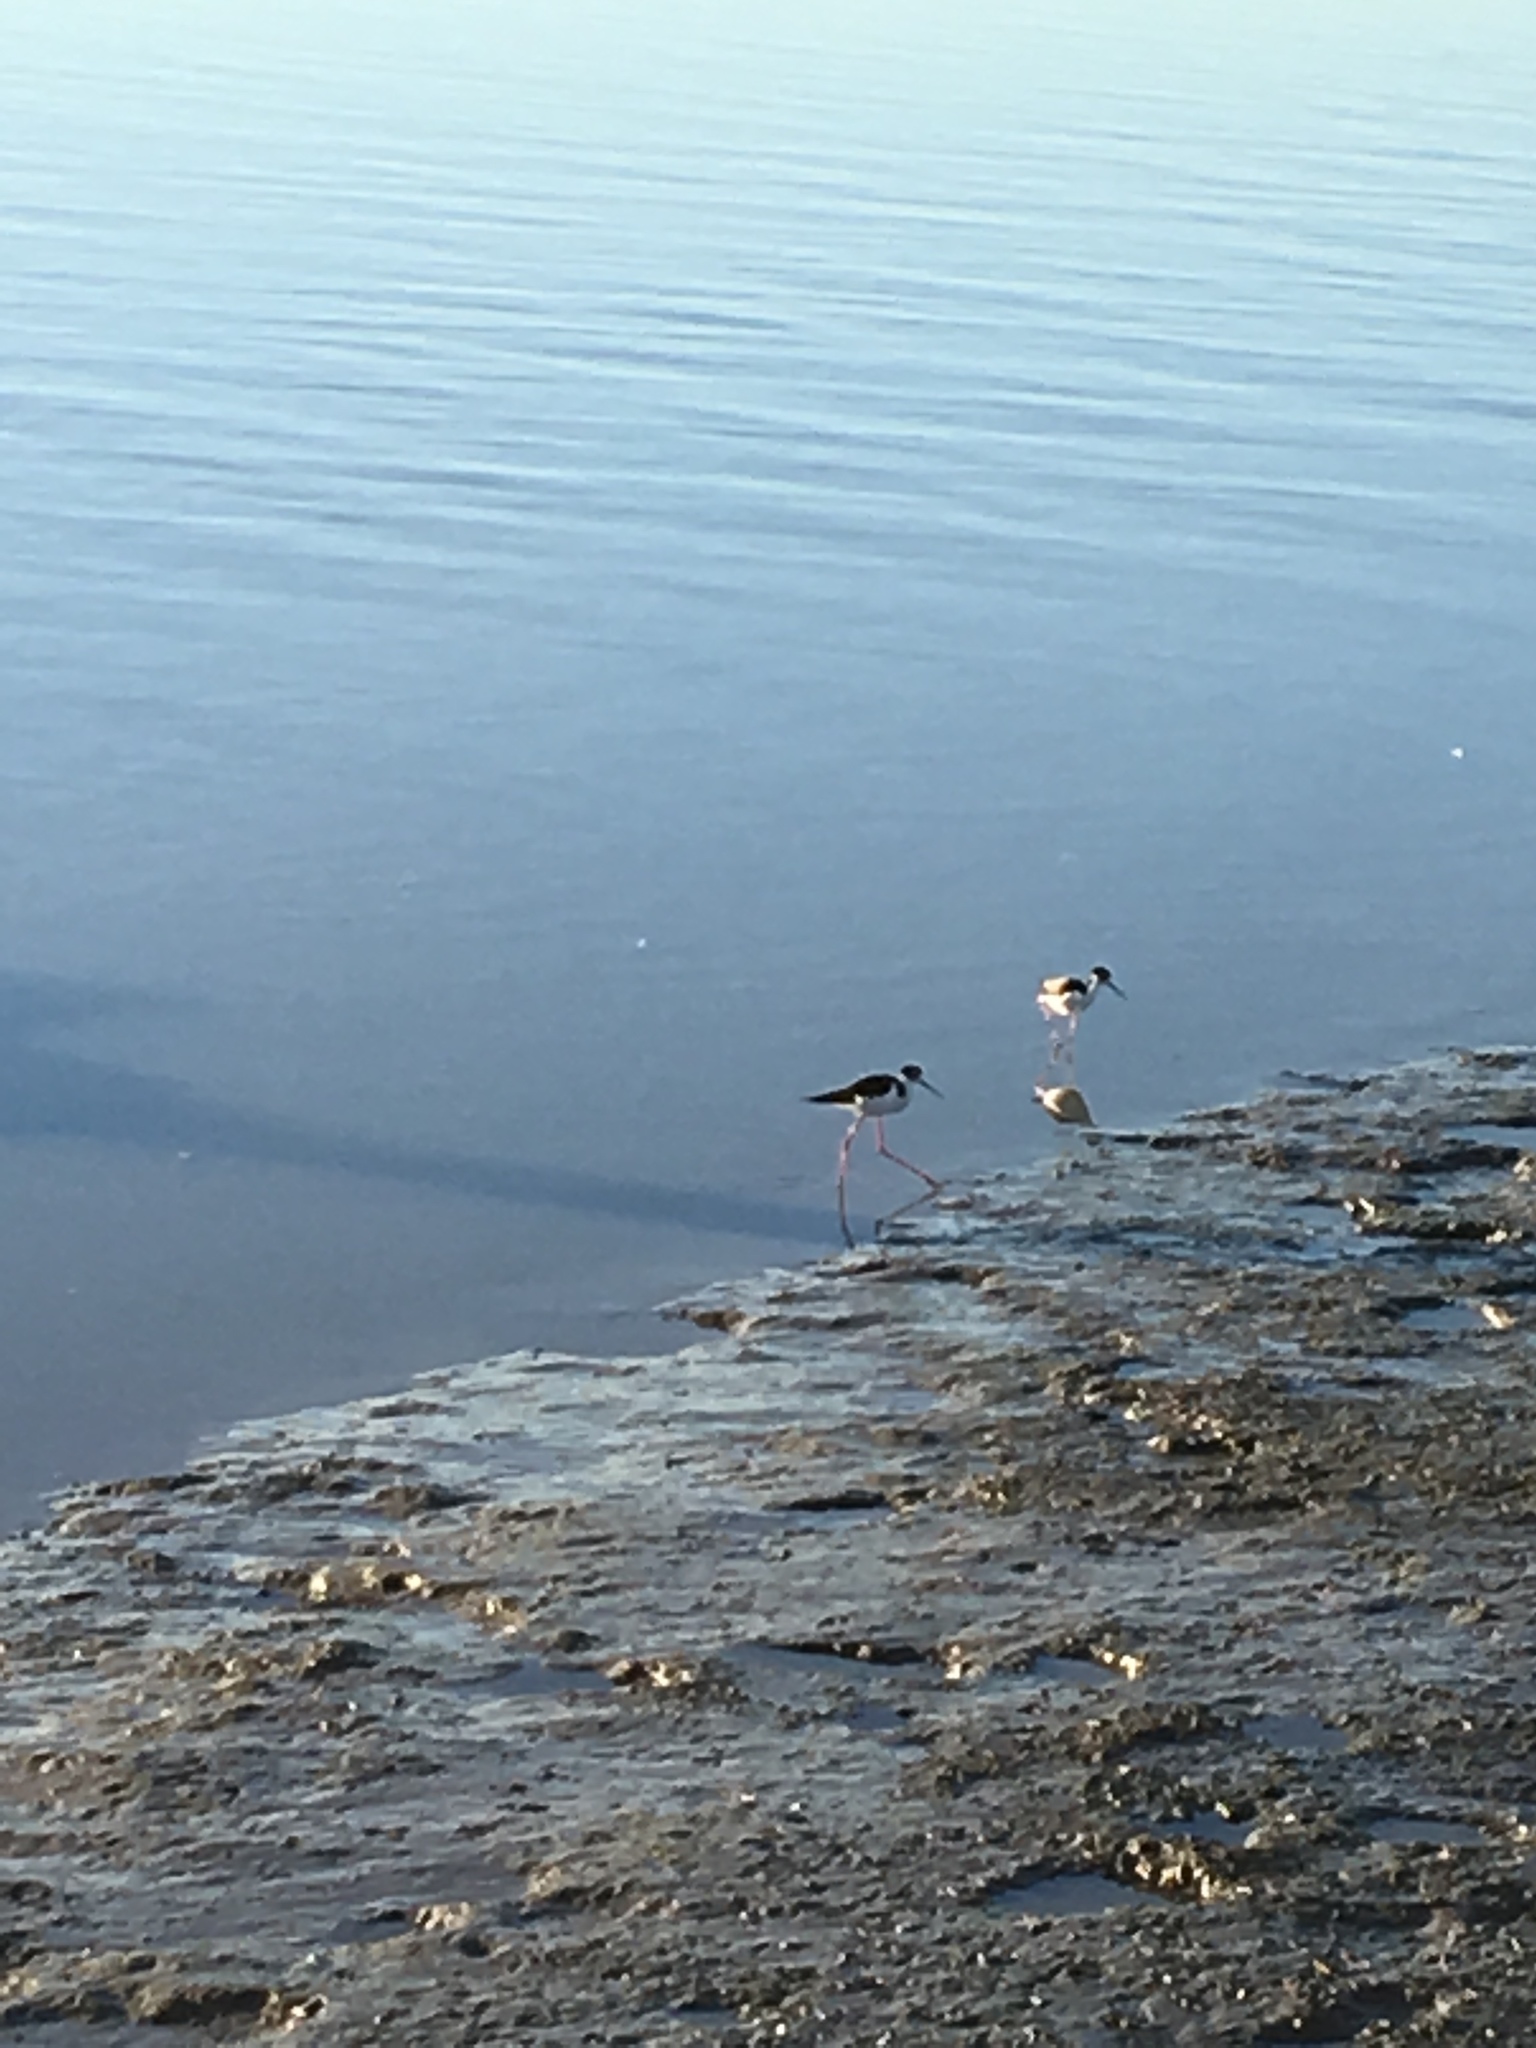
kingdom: Animalia
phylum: Chordata
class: Aves
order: Charadriiformes
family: Recurvirostridae
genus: Himantopus
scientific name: Himantopus mexicanus
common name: Black-necked stilt
